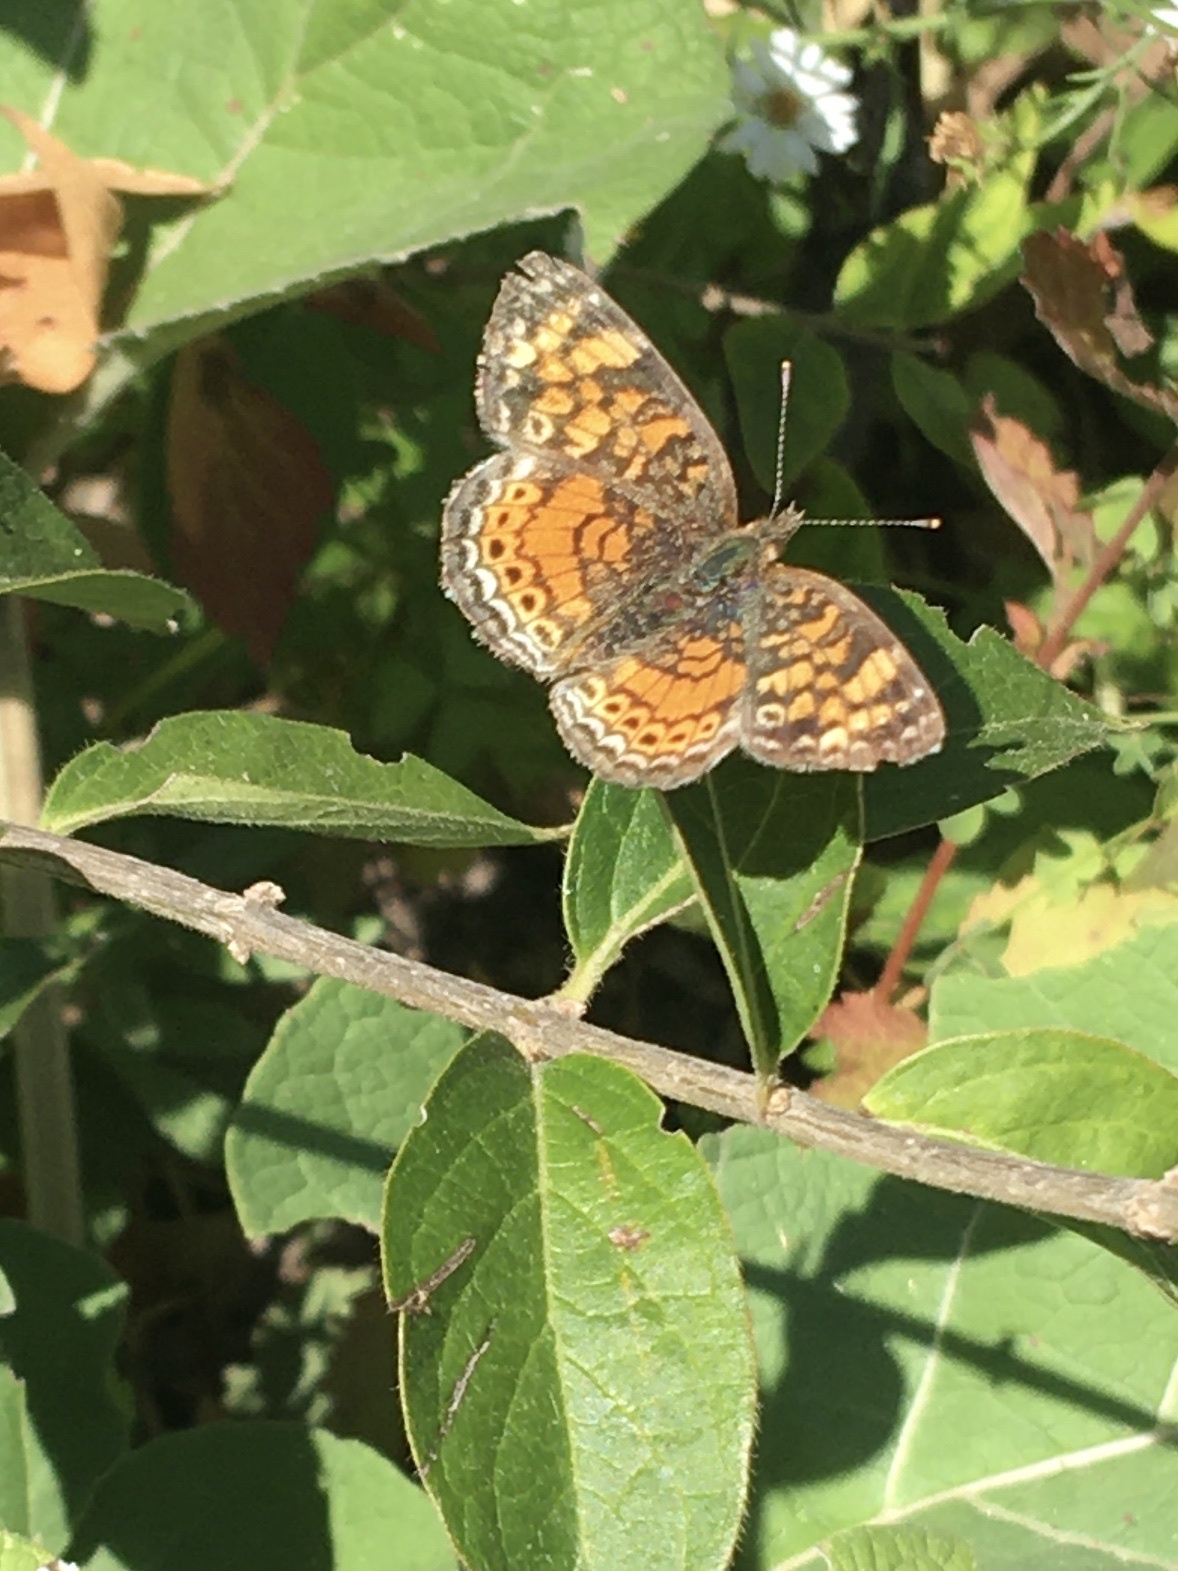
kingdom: Animalia
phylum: Arthropoda
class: Insecta
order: Lepidoptera
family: Nymphalidae
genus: Phyciodes
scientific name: Phyciodes tharos
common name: Pearl crescent
